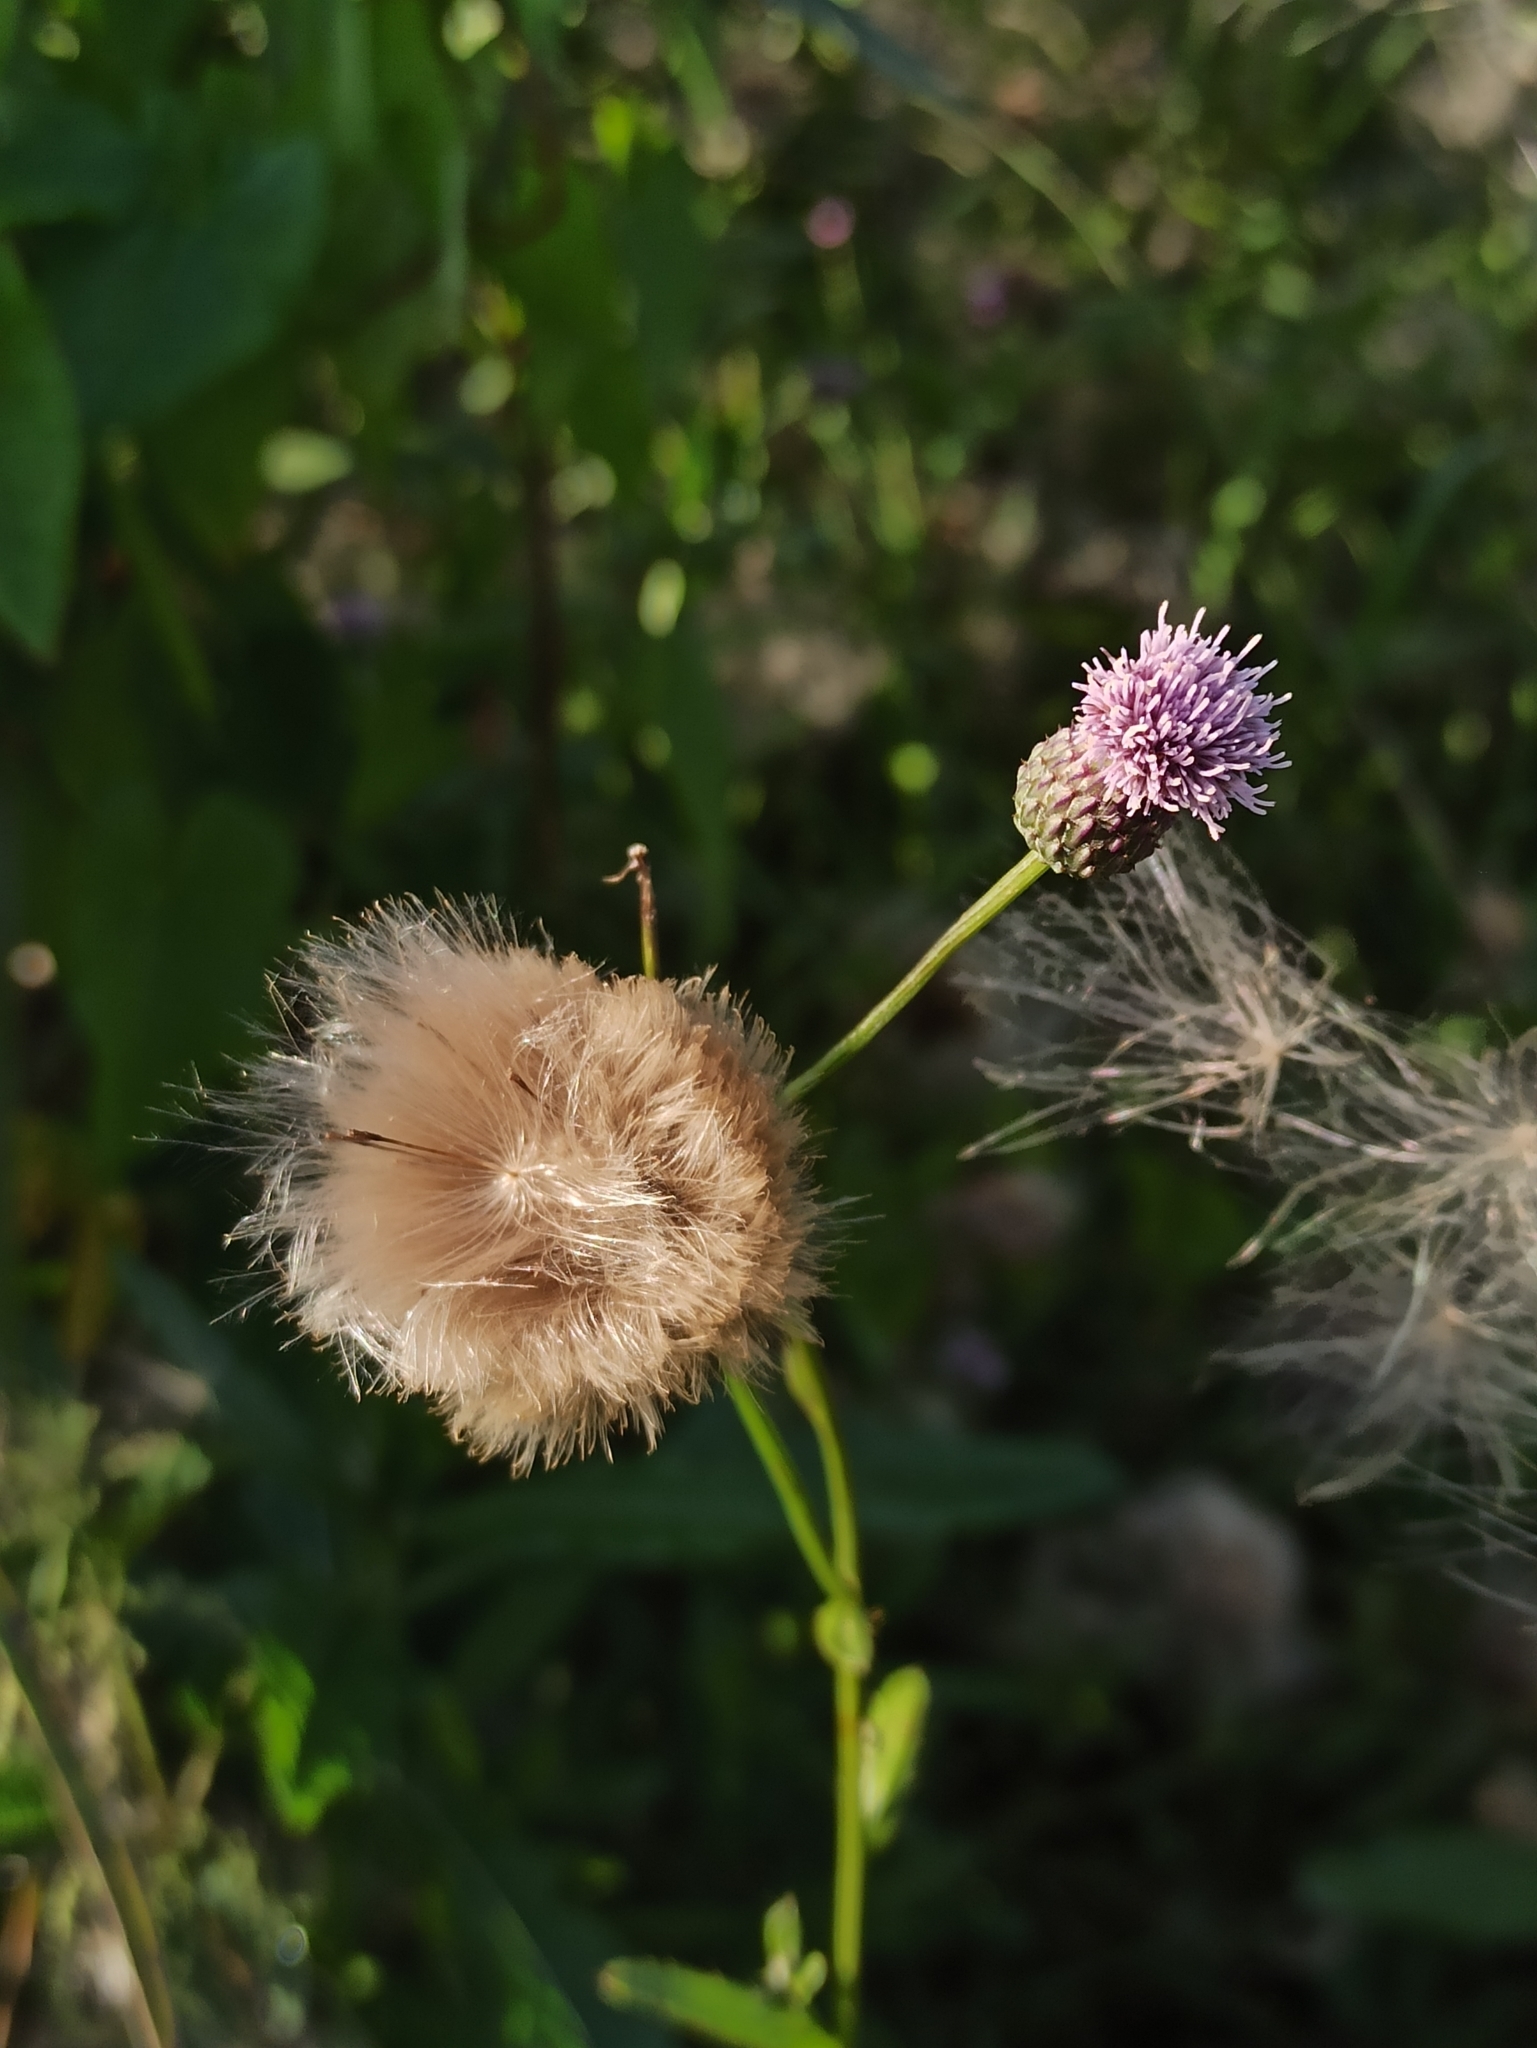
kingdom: Plantae
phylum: Tracheophyta
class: Magnoliopsida
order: Asterales
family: Asteraceae
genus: Cirsium
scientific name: Cirsium arvense
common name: Creeping thistle
